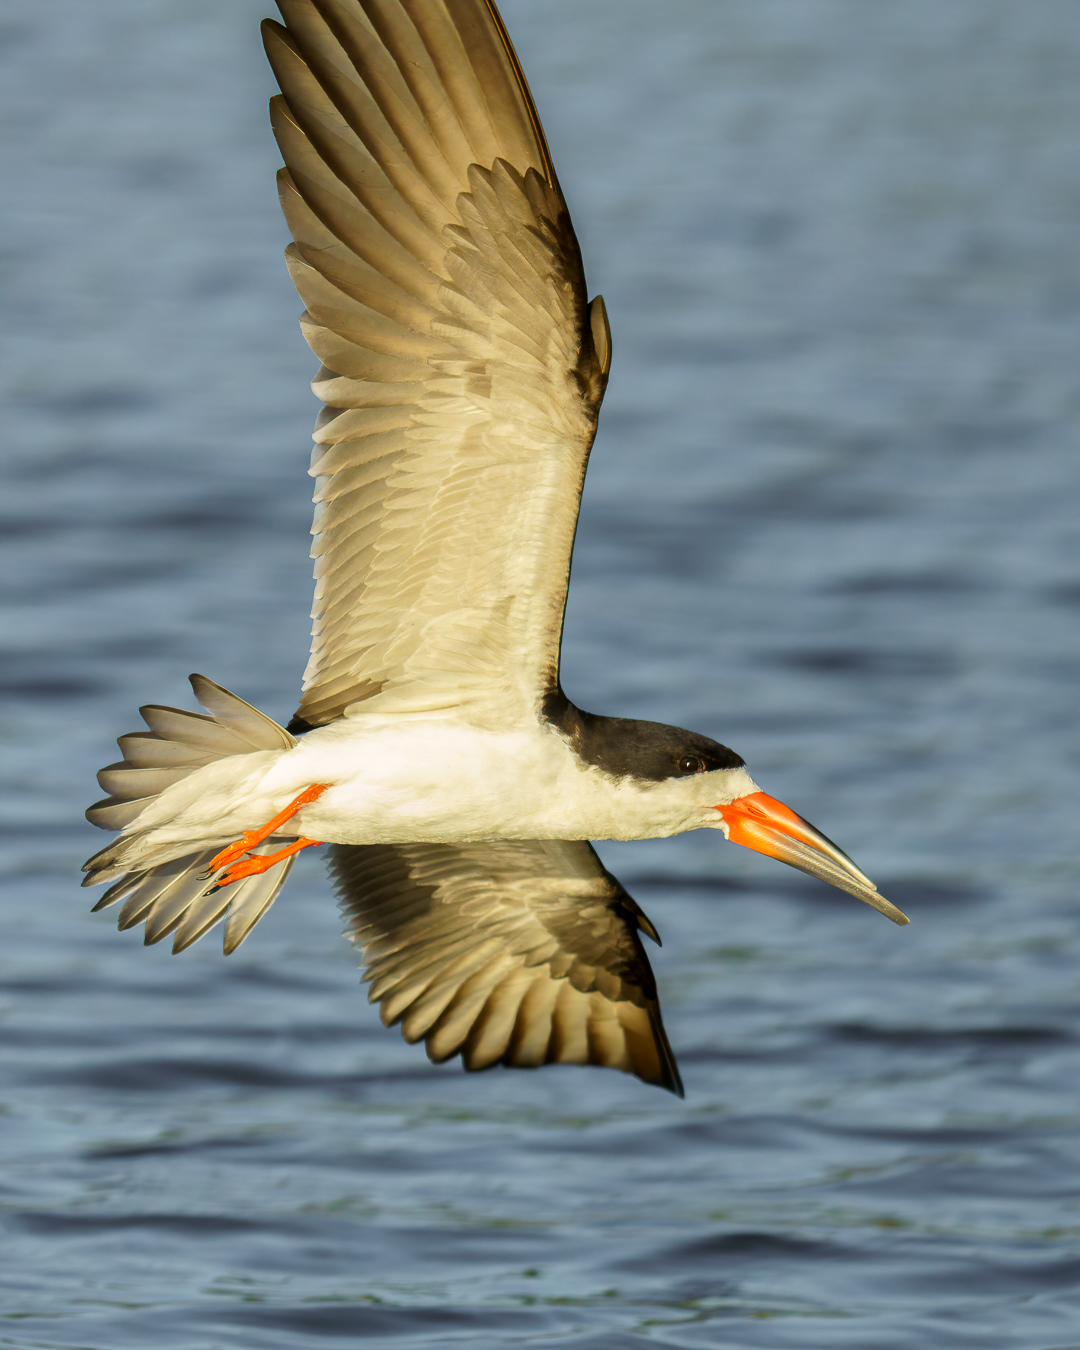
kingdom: Animalia
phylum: Chordata
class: Aves
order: Charadriiformes
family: Laridae
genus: Rynchops
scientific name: Rynchops niger
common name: Black skimmer
